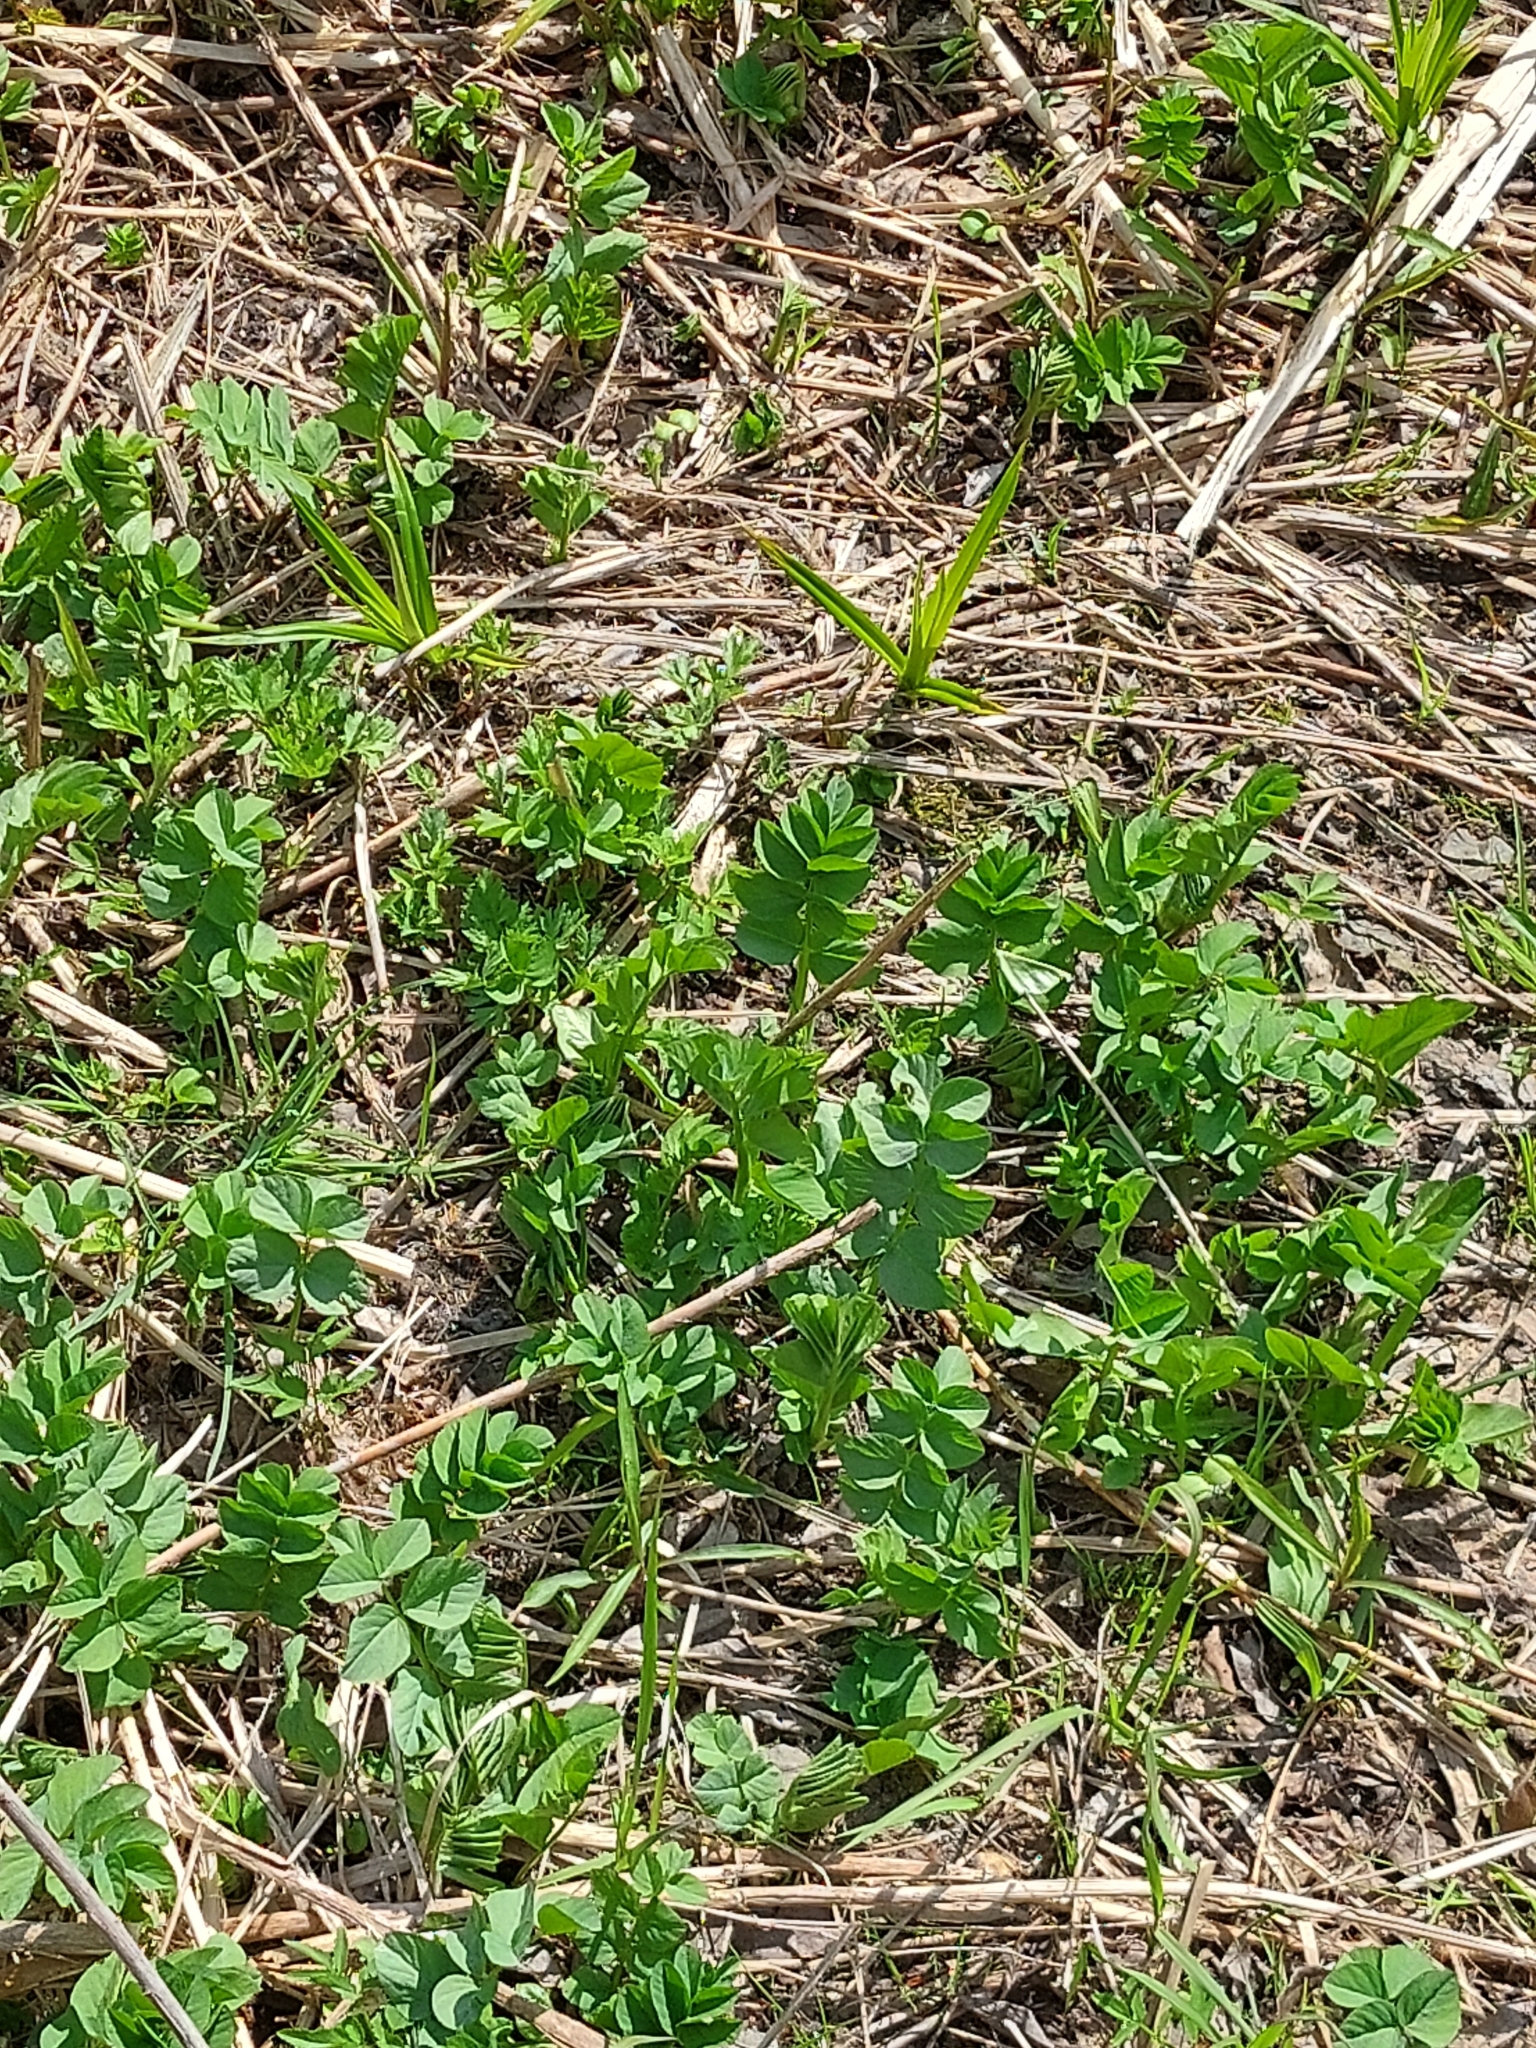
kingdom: Plantae
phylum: Tracheophyta
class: Magnoliopsida
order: Fabales
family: Fabaceae
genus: Galega
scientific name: Galega orientalis
